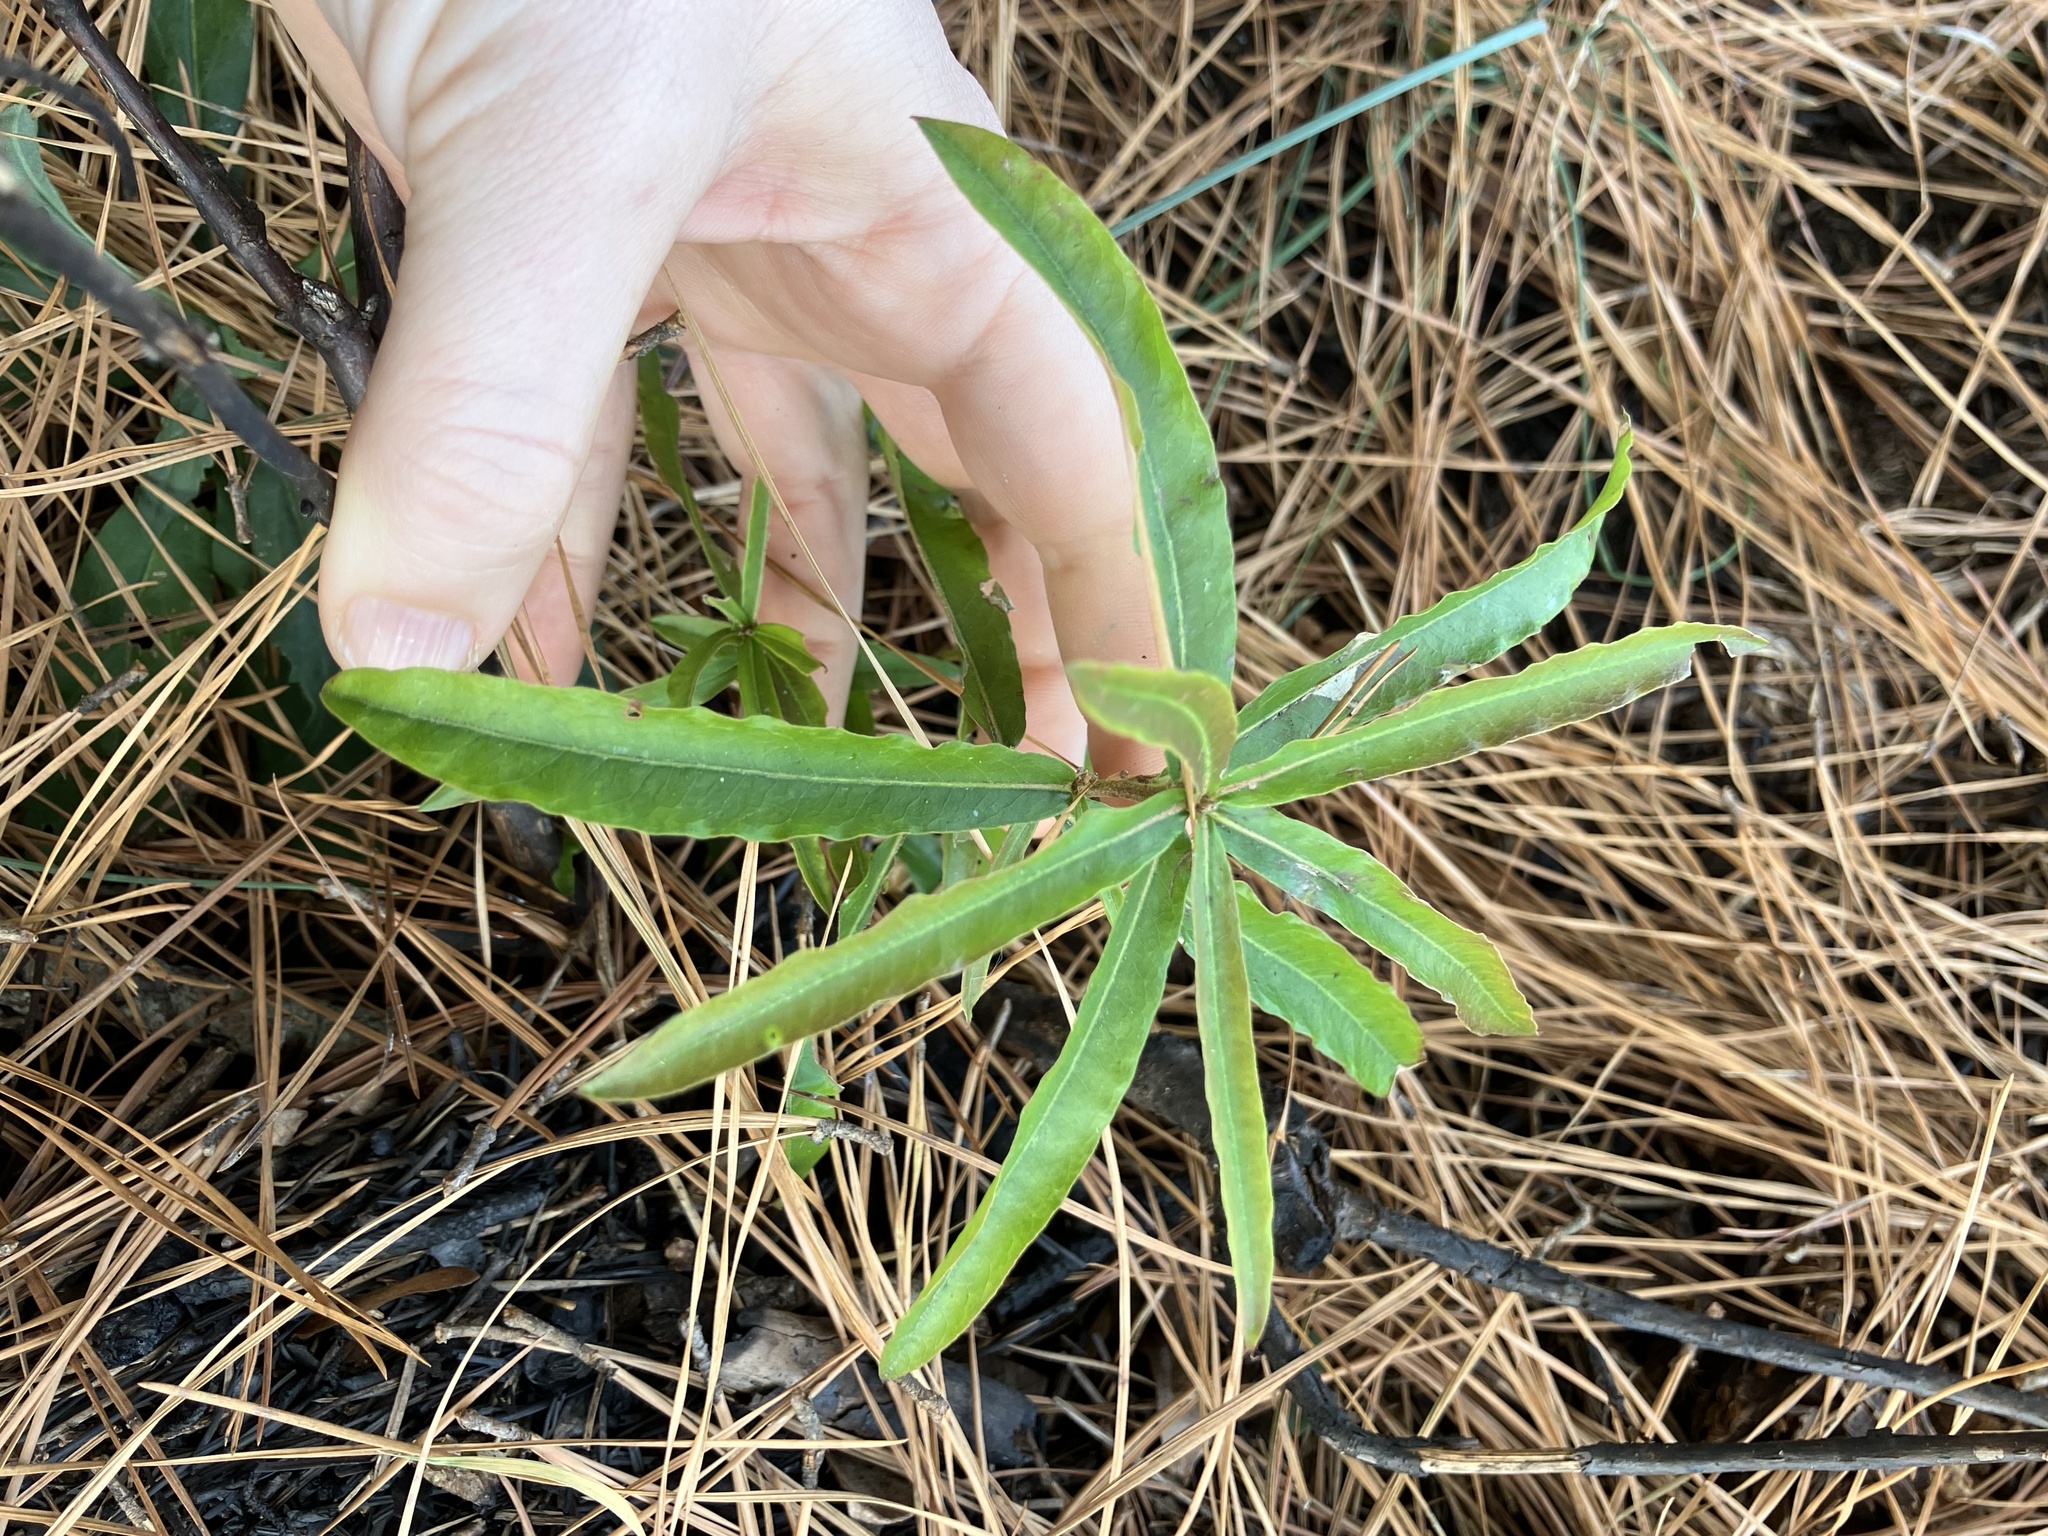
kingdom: Plantae
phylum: Tracheophyta
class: Magnoliopsida
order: Fagales
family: Fagaceae
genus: Quercus
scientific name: Quercus phellos
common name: Willow oak
